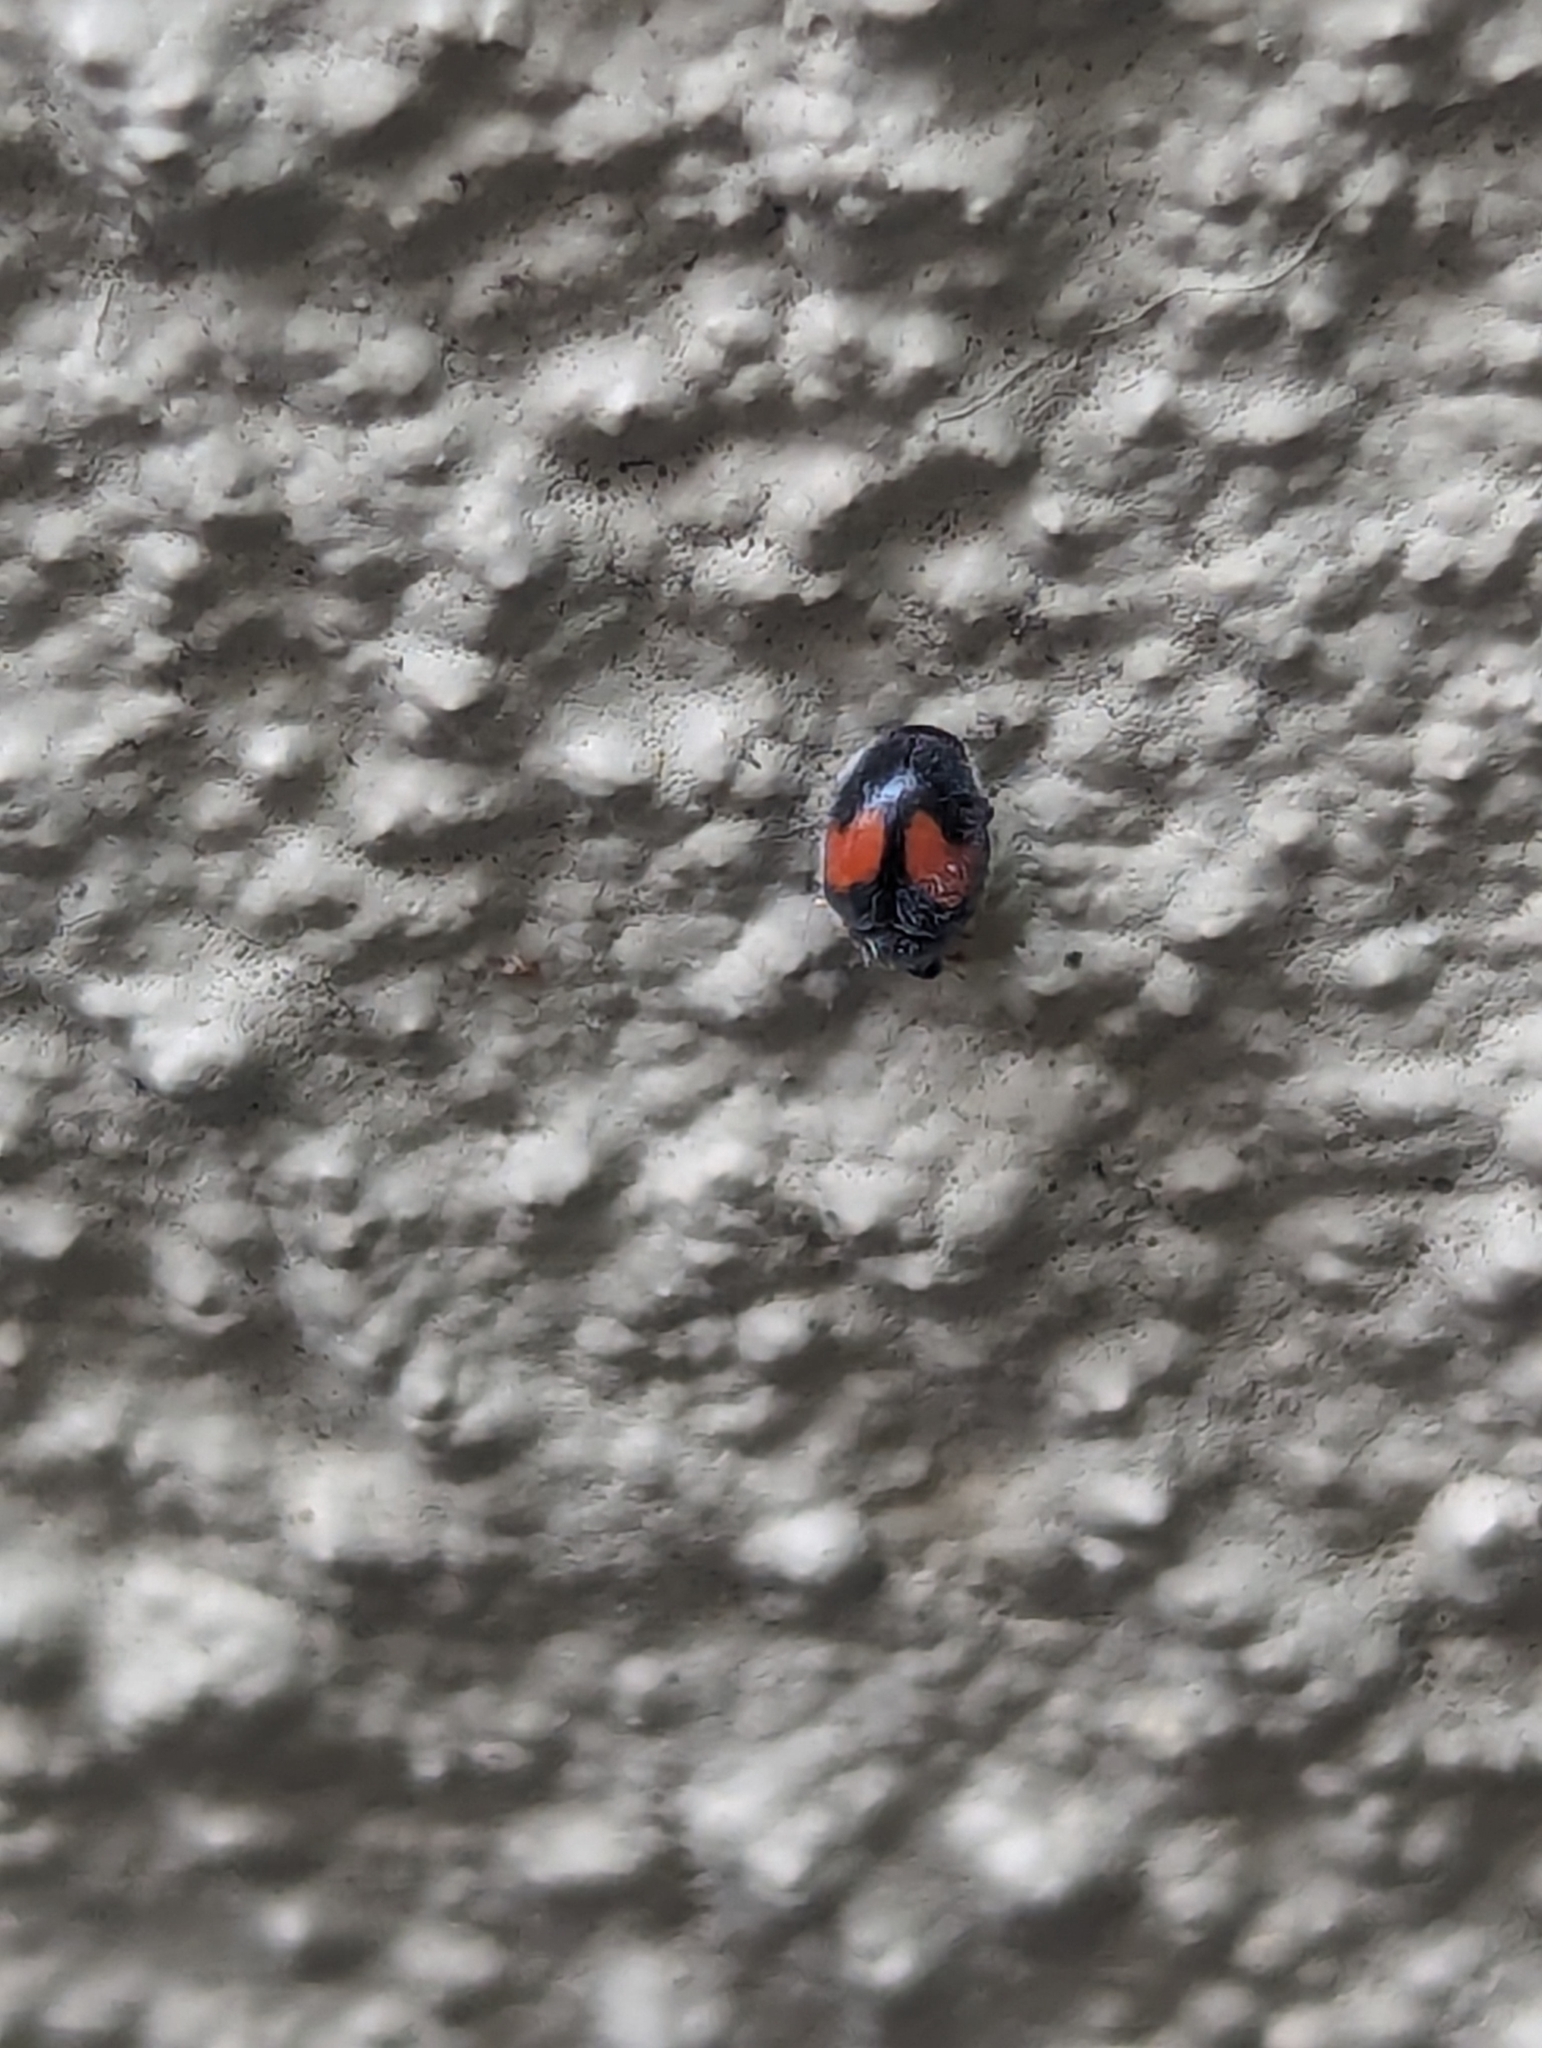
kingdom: Animalia
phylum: Arthropoda
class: Insecta
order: Coleoptera
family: Coccinellidae
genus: Scymnus
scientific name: Scymnus notescens
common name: Minute two-spotted ladybird beetle
